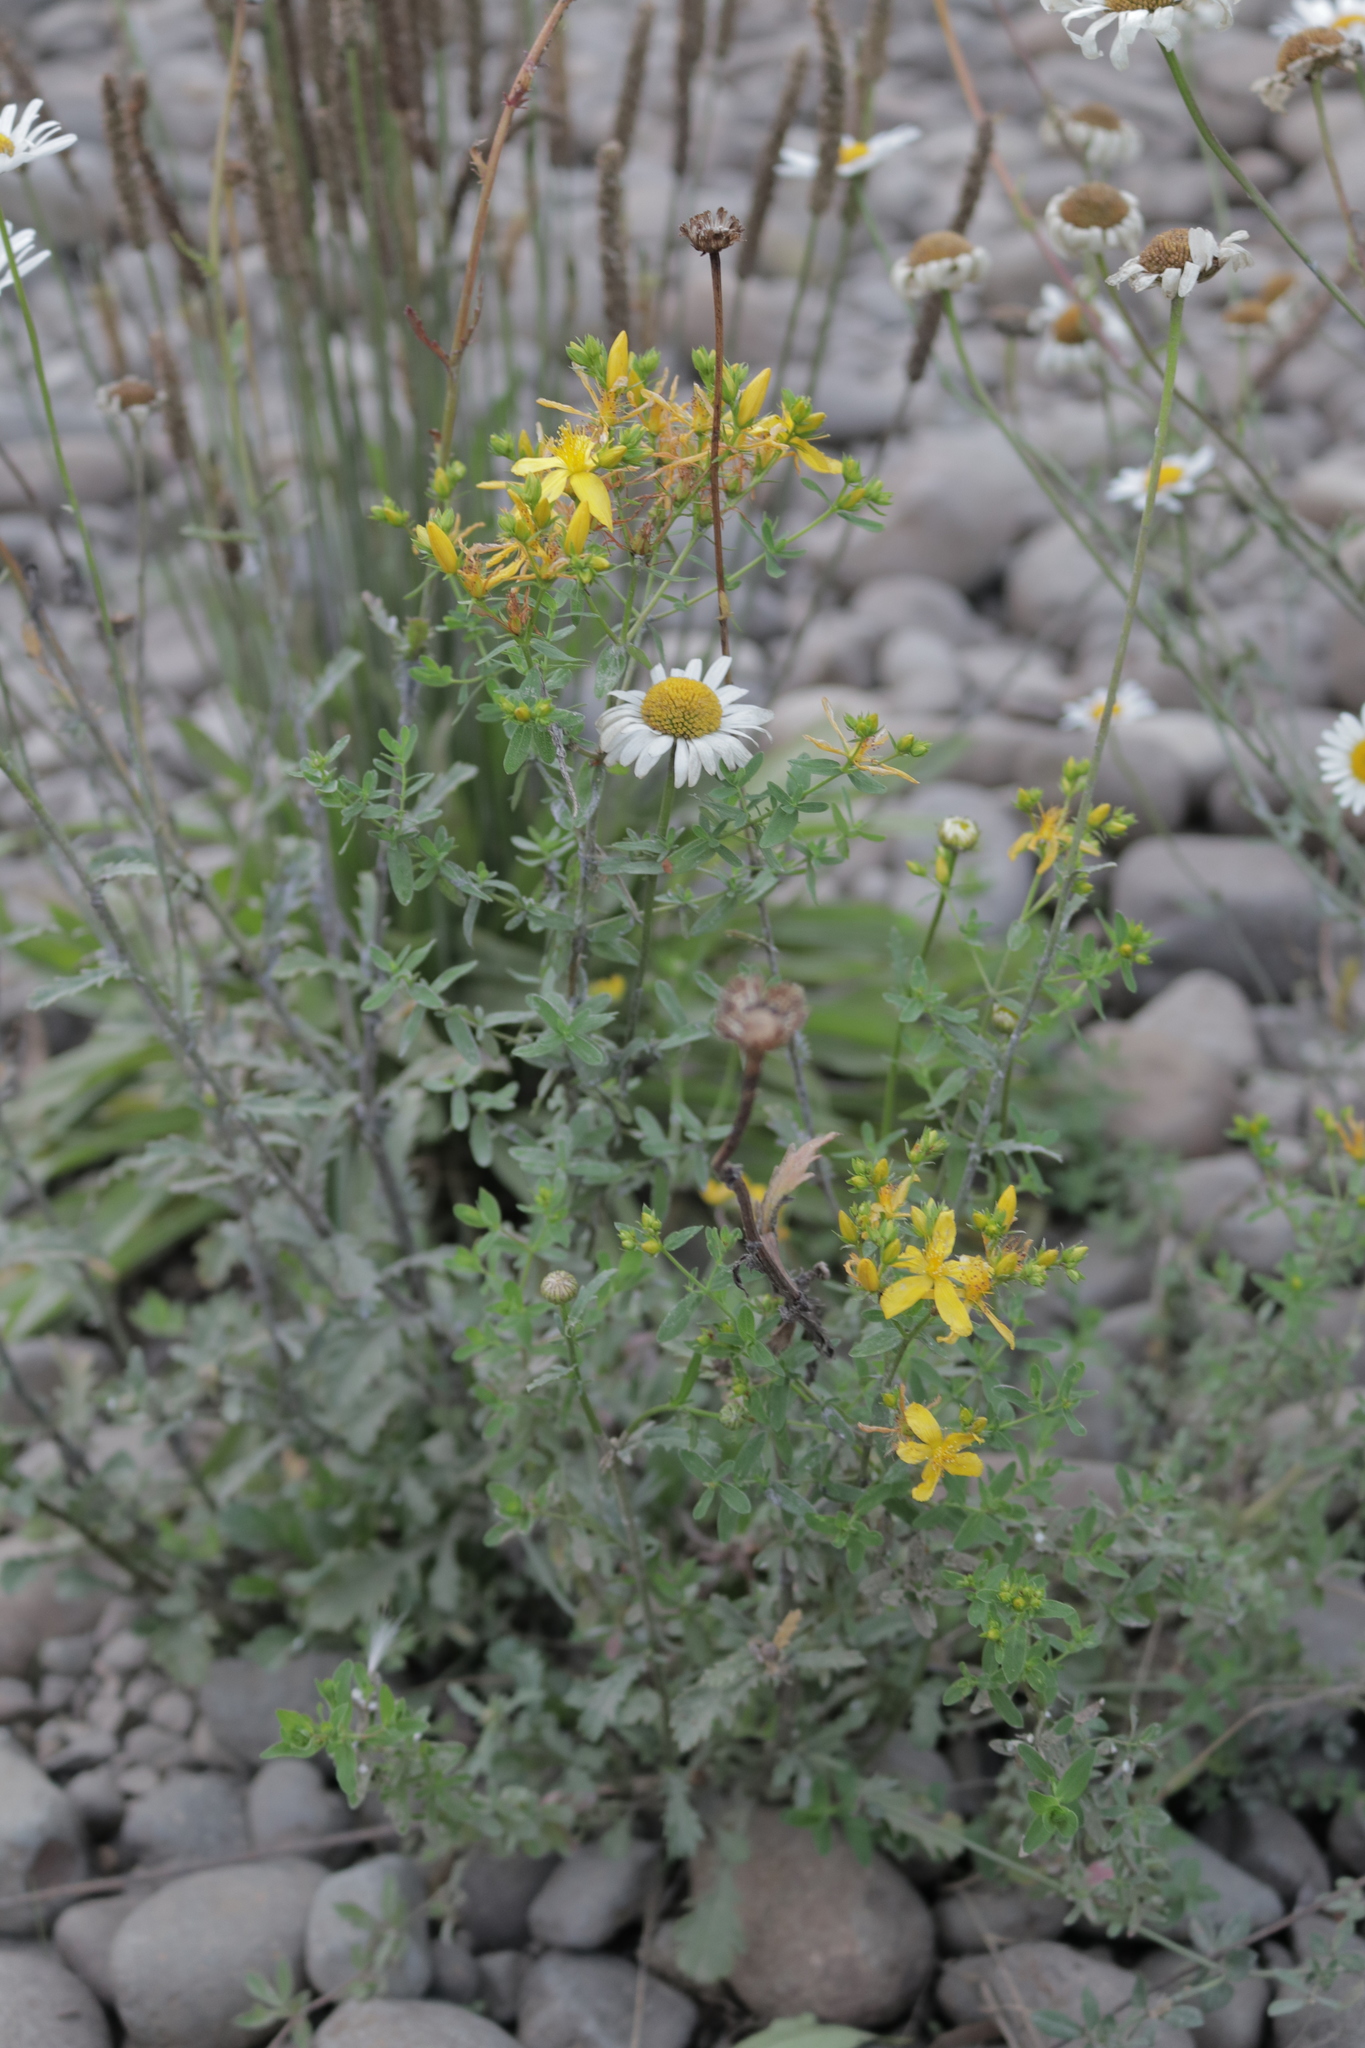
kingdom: Plantae
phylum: Tracheophyta
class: Magnoliopsida
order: Malpighiales
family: Hypericaceae
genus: Hypericum
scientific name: Hypericum perforatum
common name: Common st. johnswort
